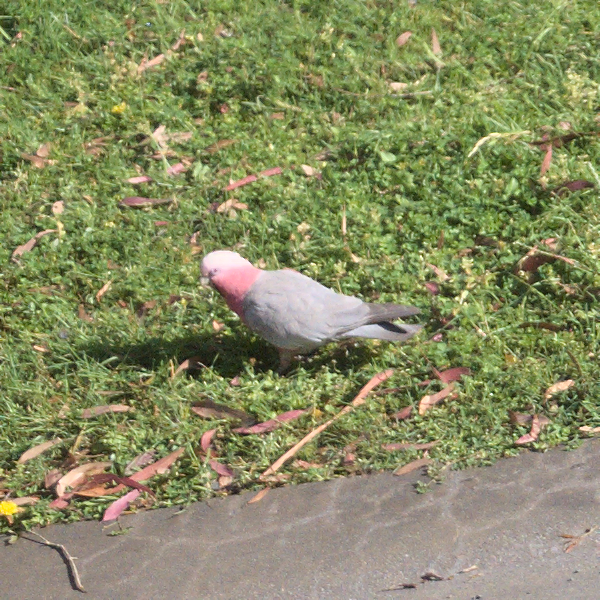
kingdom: Animalia
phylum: Chordata
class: Aves
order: Psittaciformes
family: Psittacidae
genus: Eolophus
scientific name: Eolophus roseicapilla
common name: Galah
